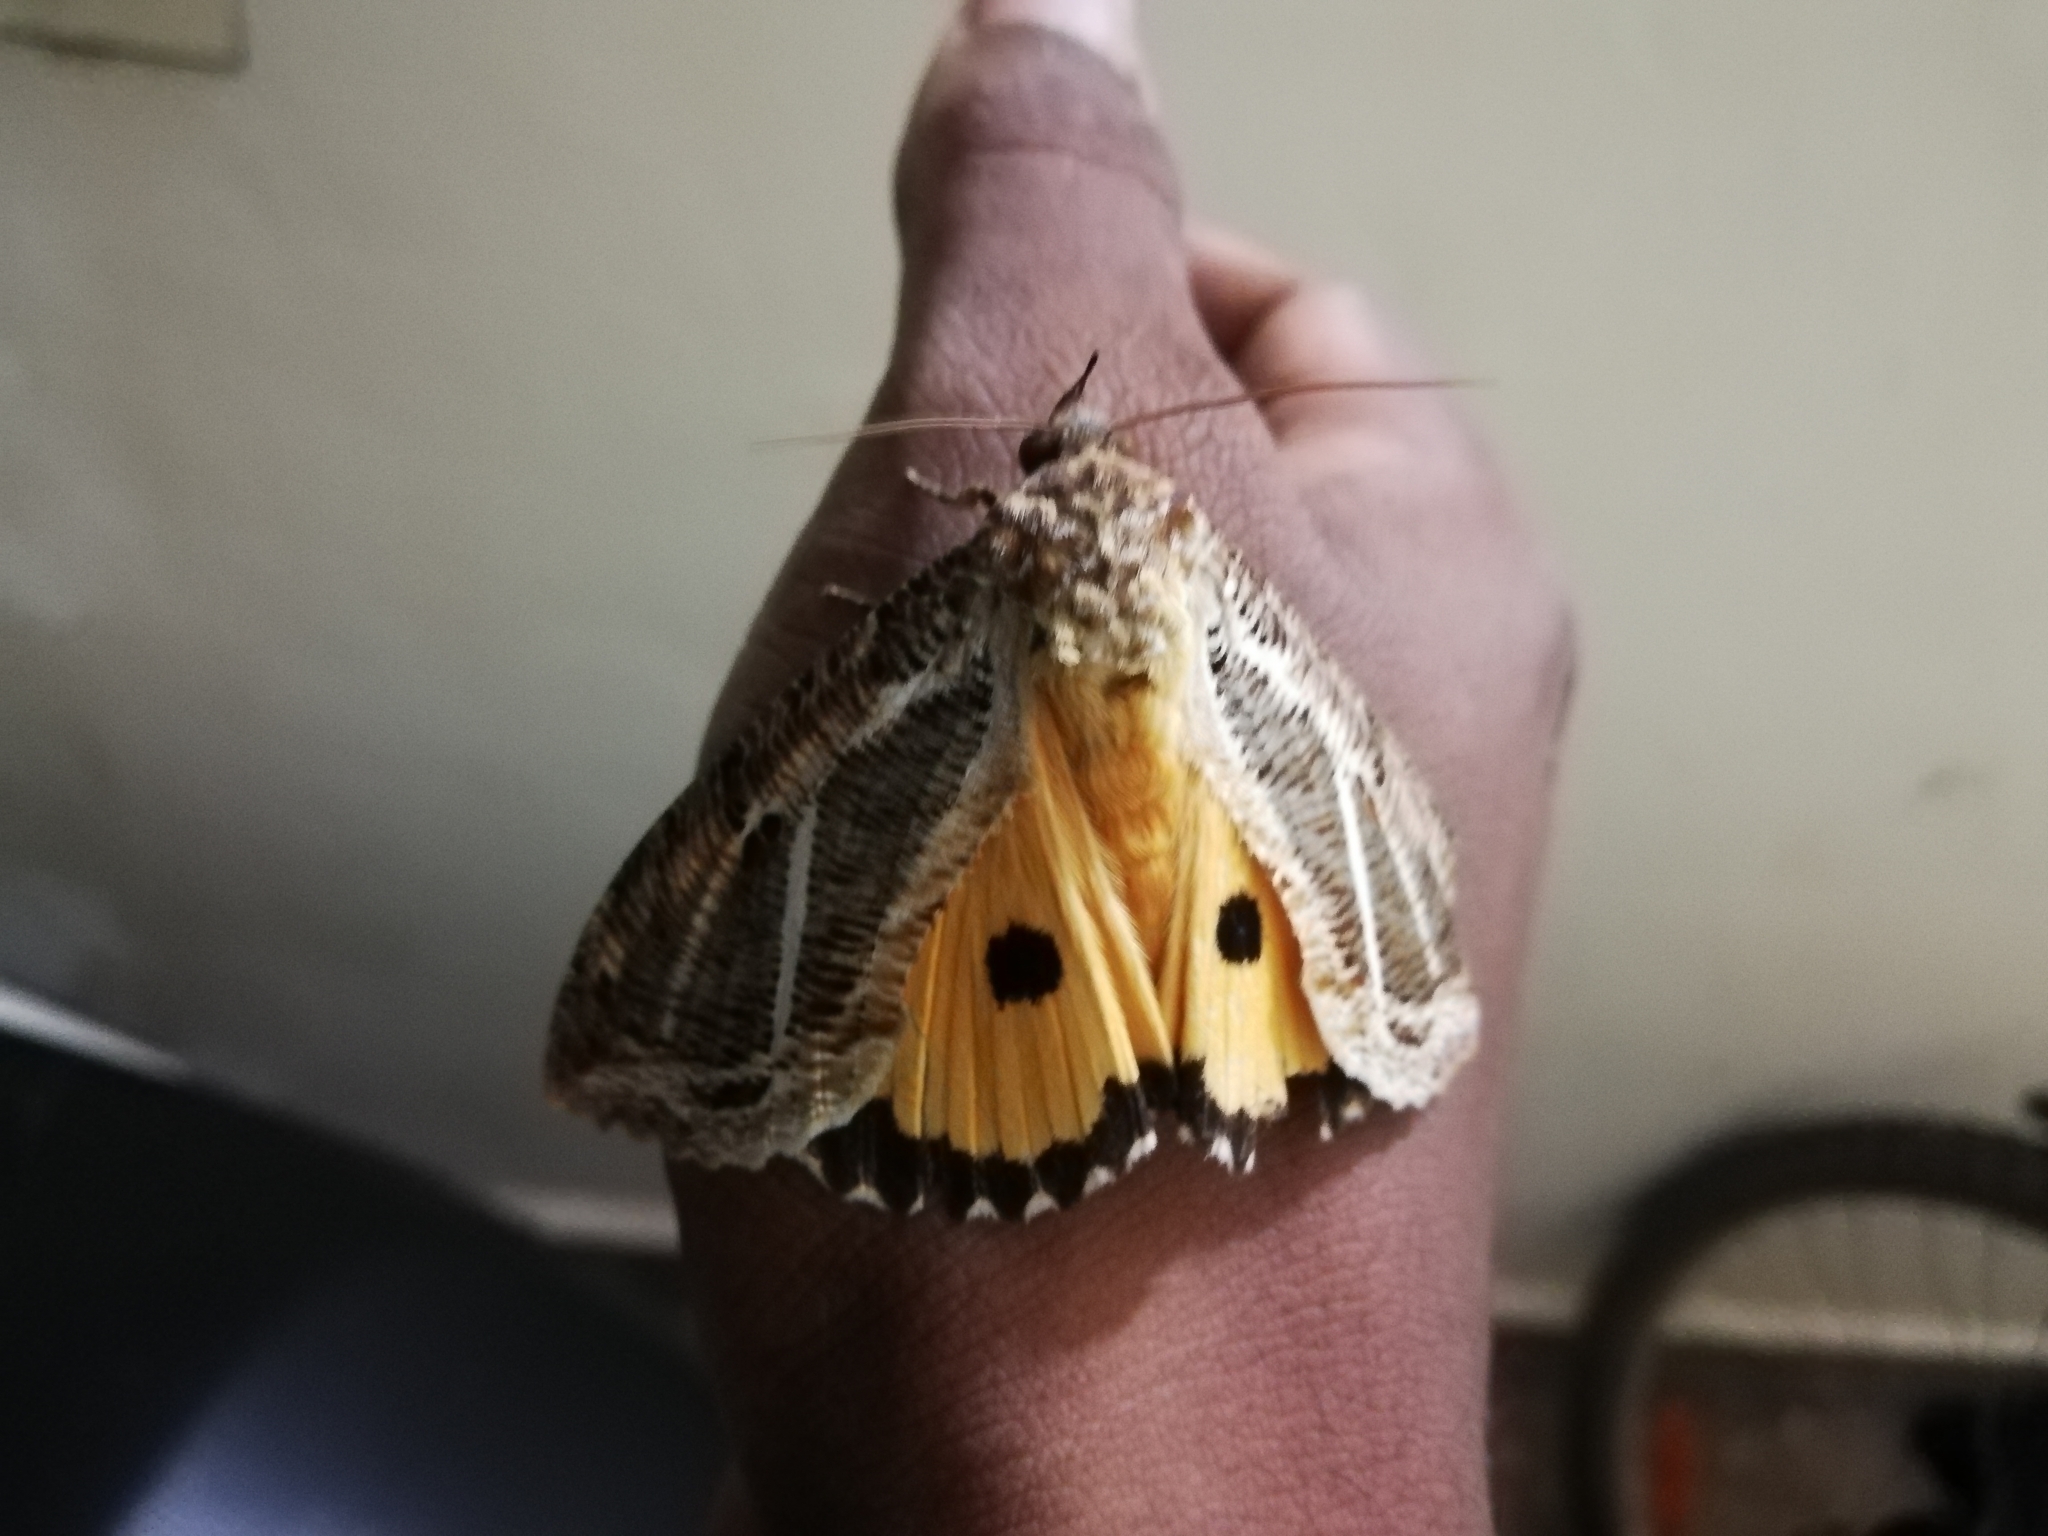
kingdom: Animalia
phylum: Arthropoda
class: Insecta
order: Lepidoptera
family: Erebidae
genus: Eudocima
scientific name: Eudocima materna
